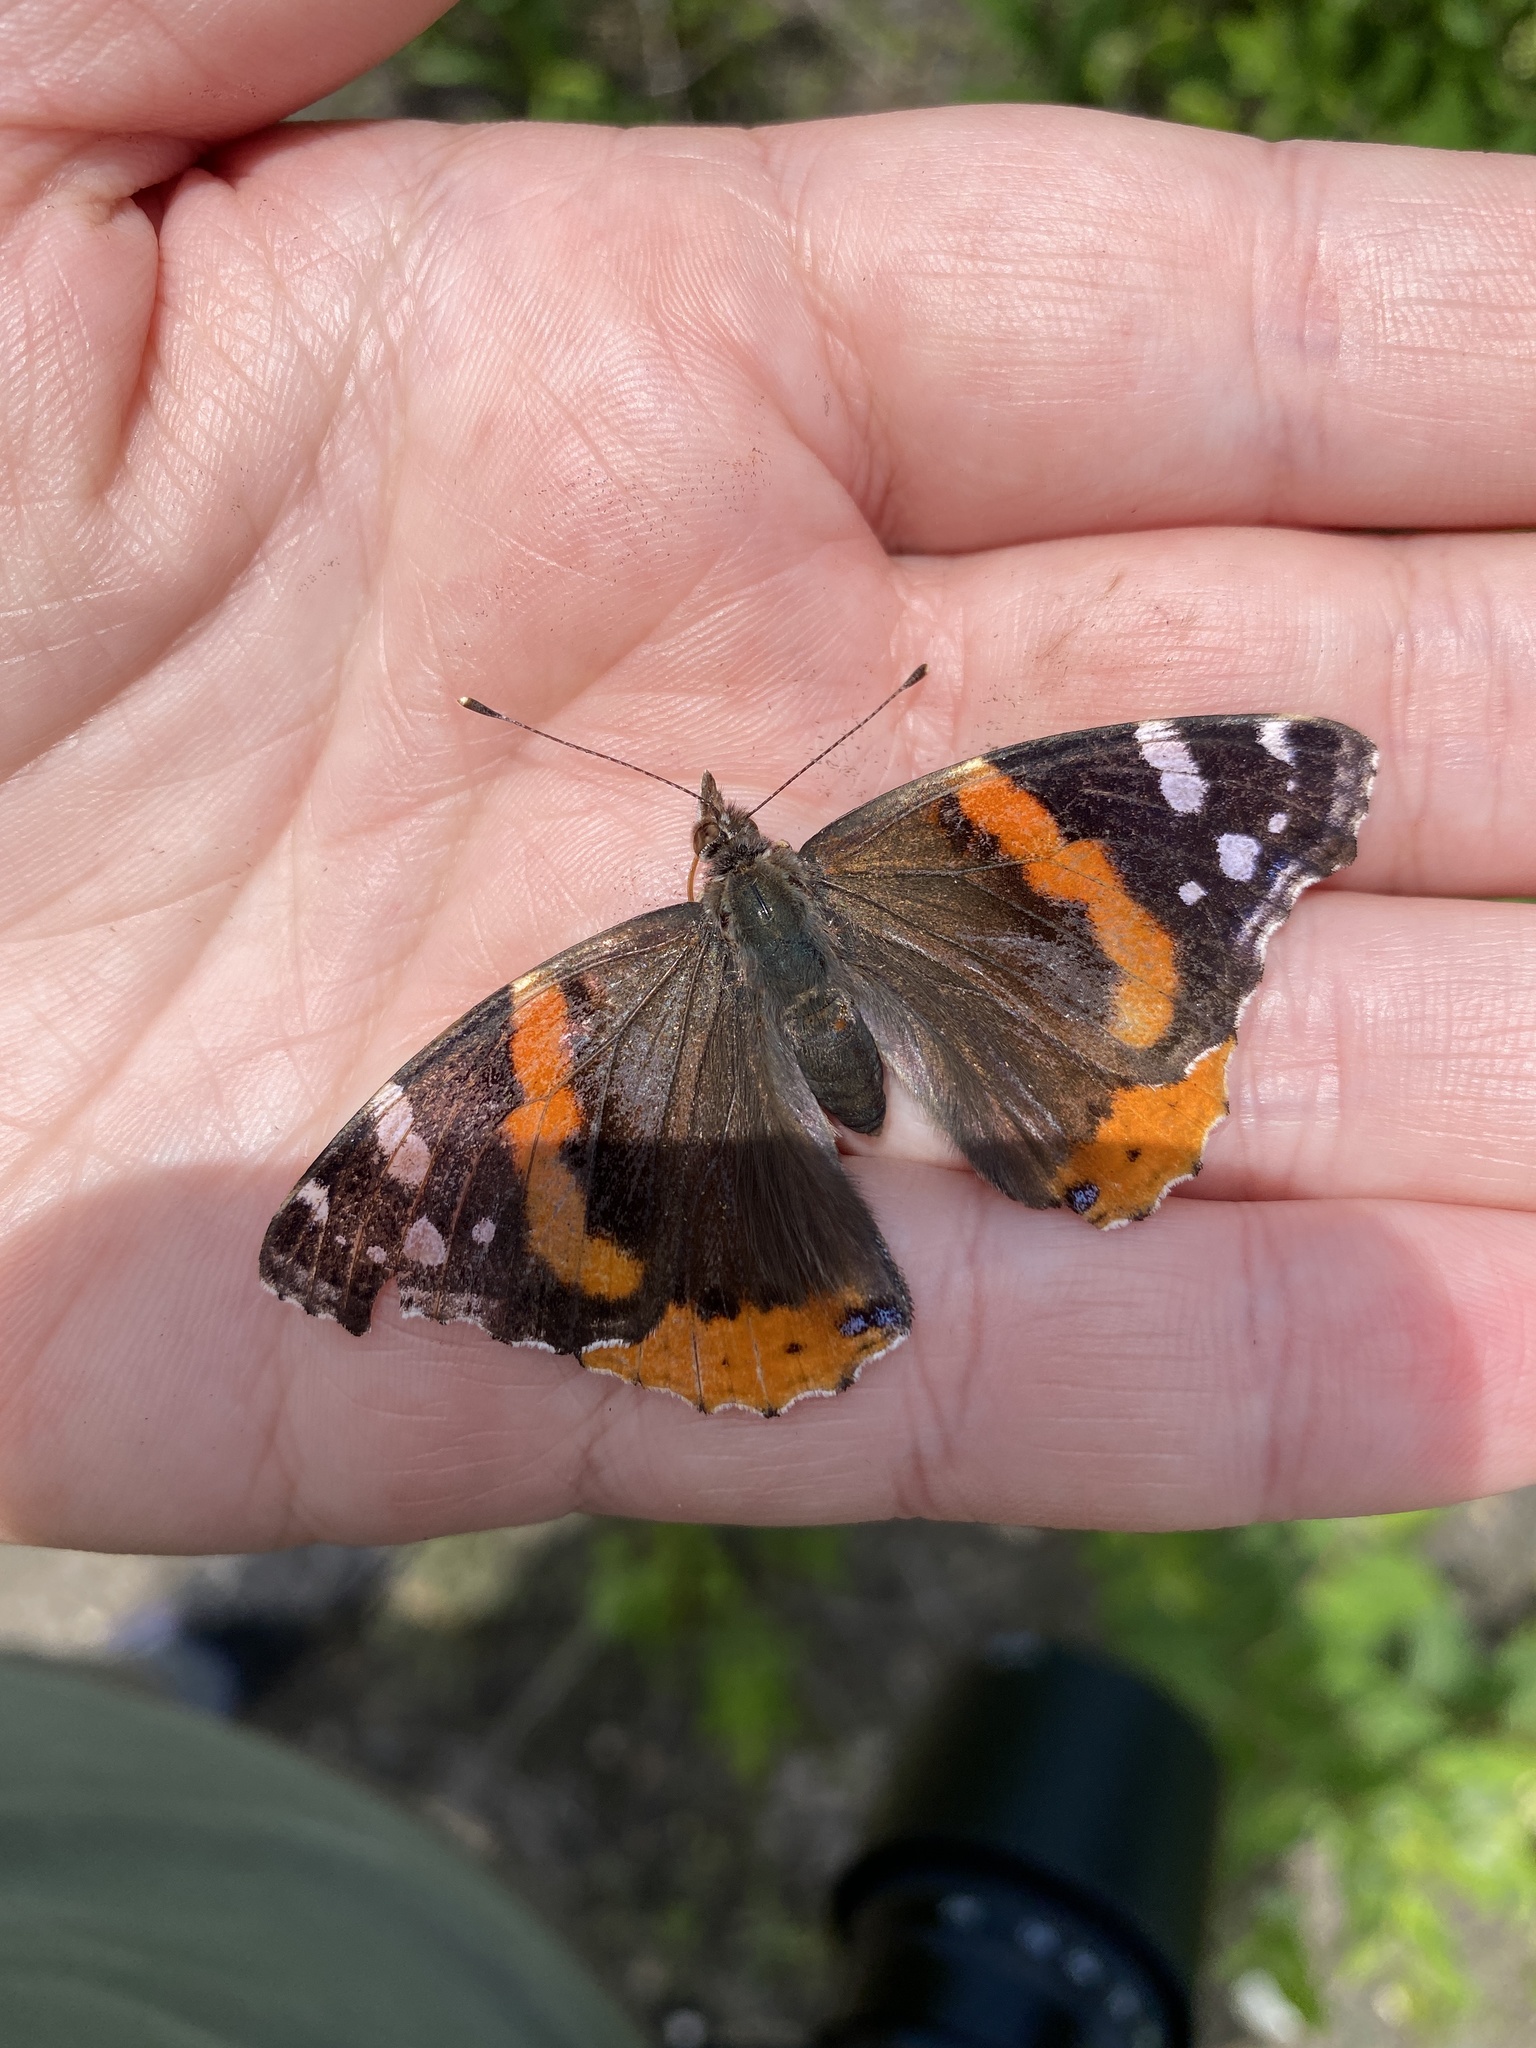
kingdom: Animalia
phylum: Arthropoda
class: Insecta
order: Lepidoptera
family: Nymphalidae
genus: Vanessa
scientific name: Vanessa atalanta
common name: Red admiral
